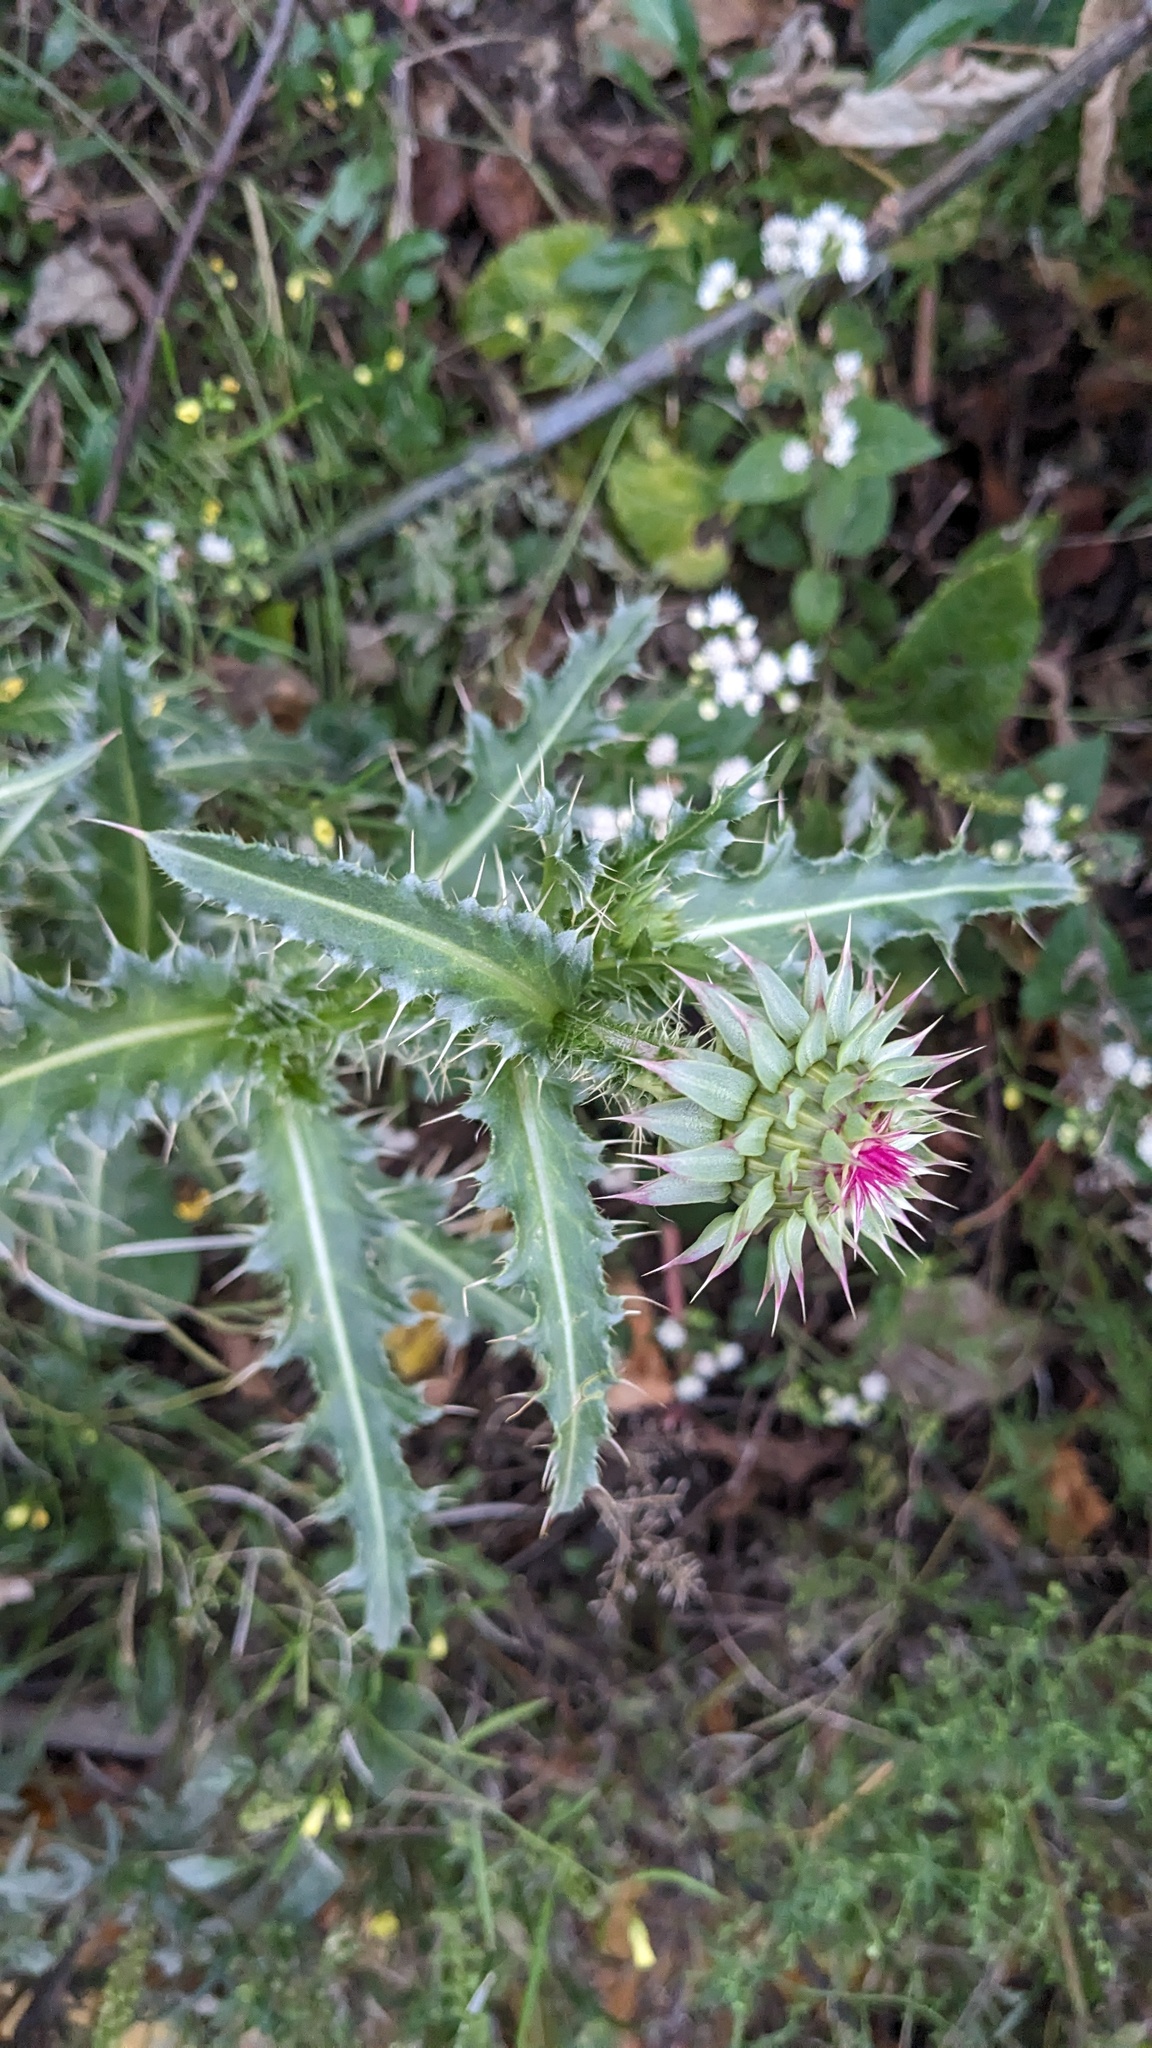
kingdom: Plantae
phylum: Tracheophyta
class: Magnoliopsida
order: Asterales
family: Asteraceae
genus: Carduus
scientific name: Carduus nutans
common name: Musk thistle
